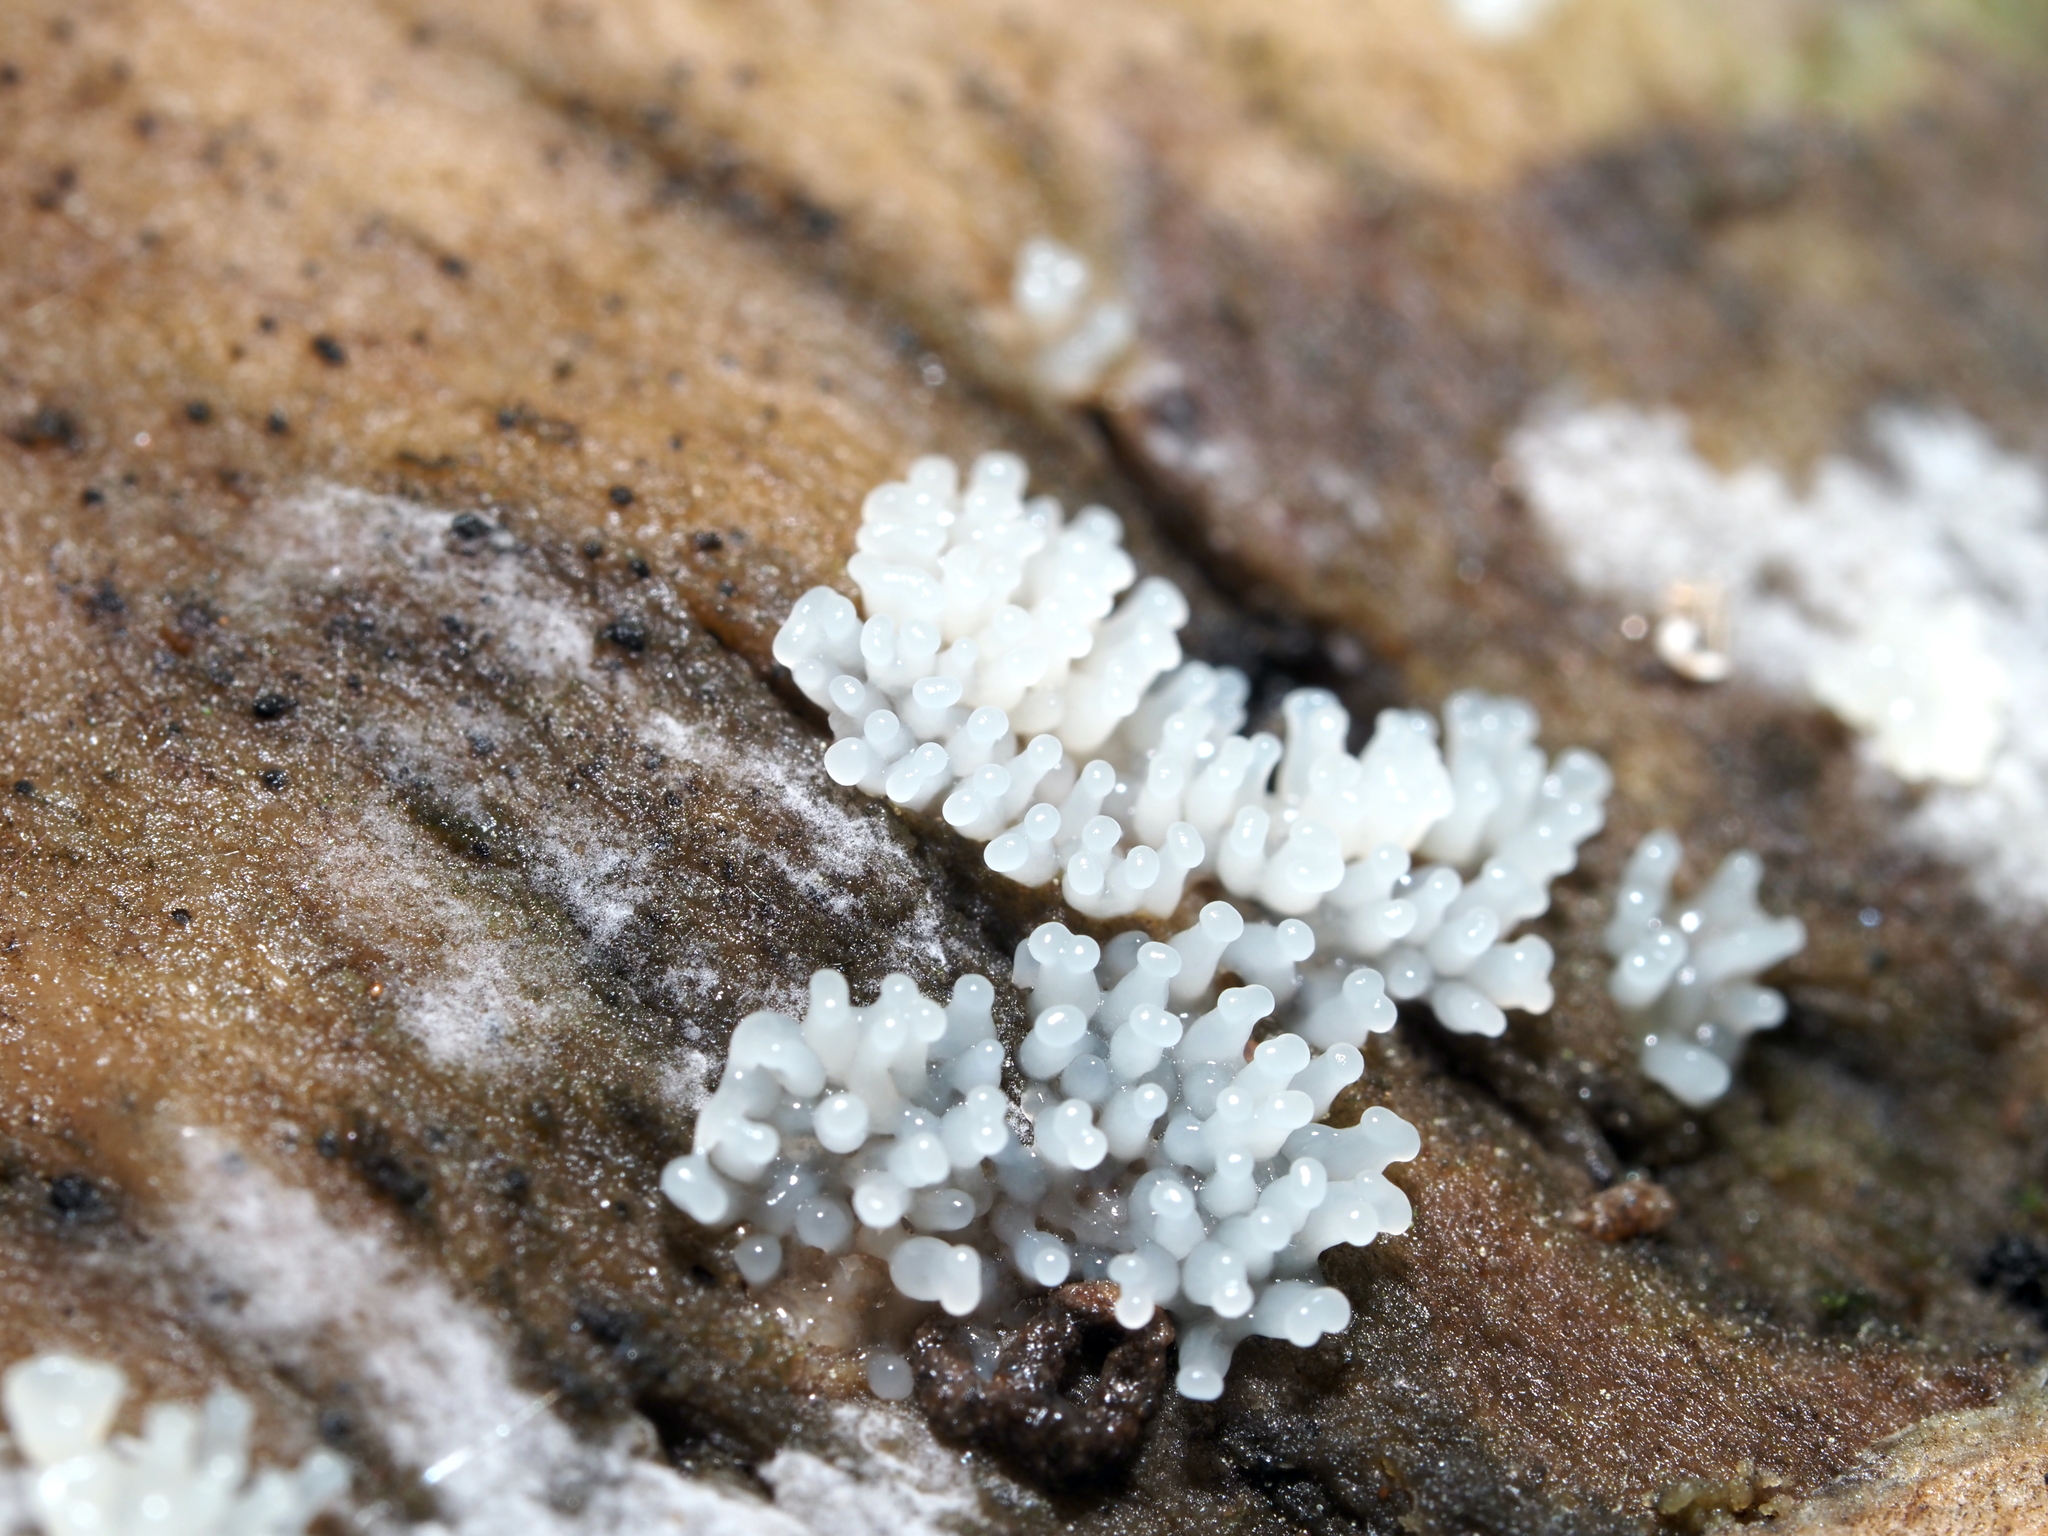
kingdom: Protozoa
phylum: Mycetozoa
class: Protosteliomycetes
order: Ceratiomyxales
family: Ceratiomyxaceae
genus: Ceratiomyxa
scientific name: Ceratiomyxa fruticulosa
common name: Honeycomb coral slime mold
